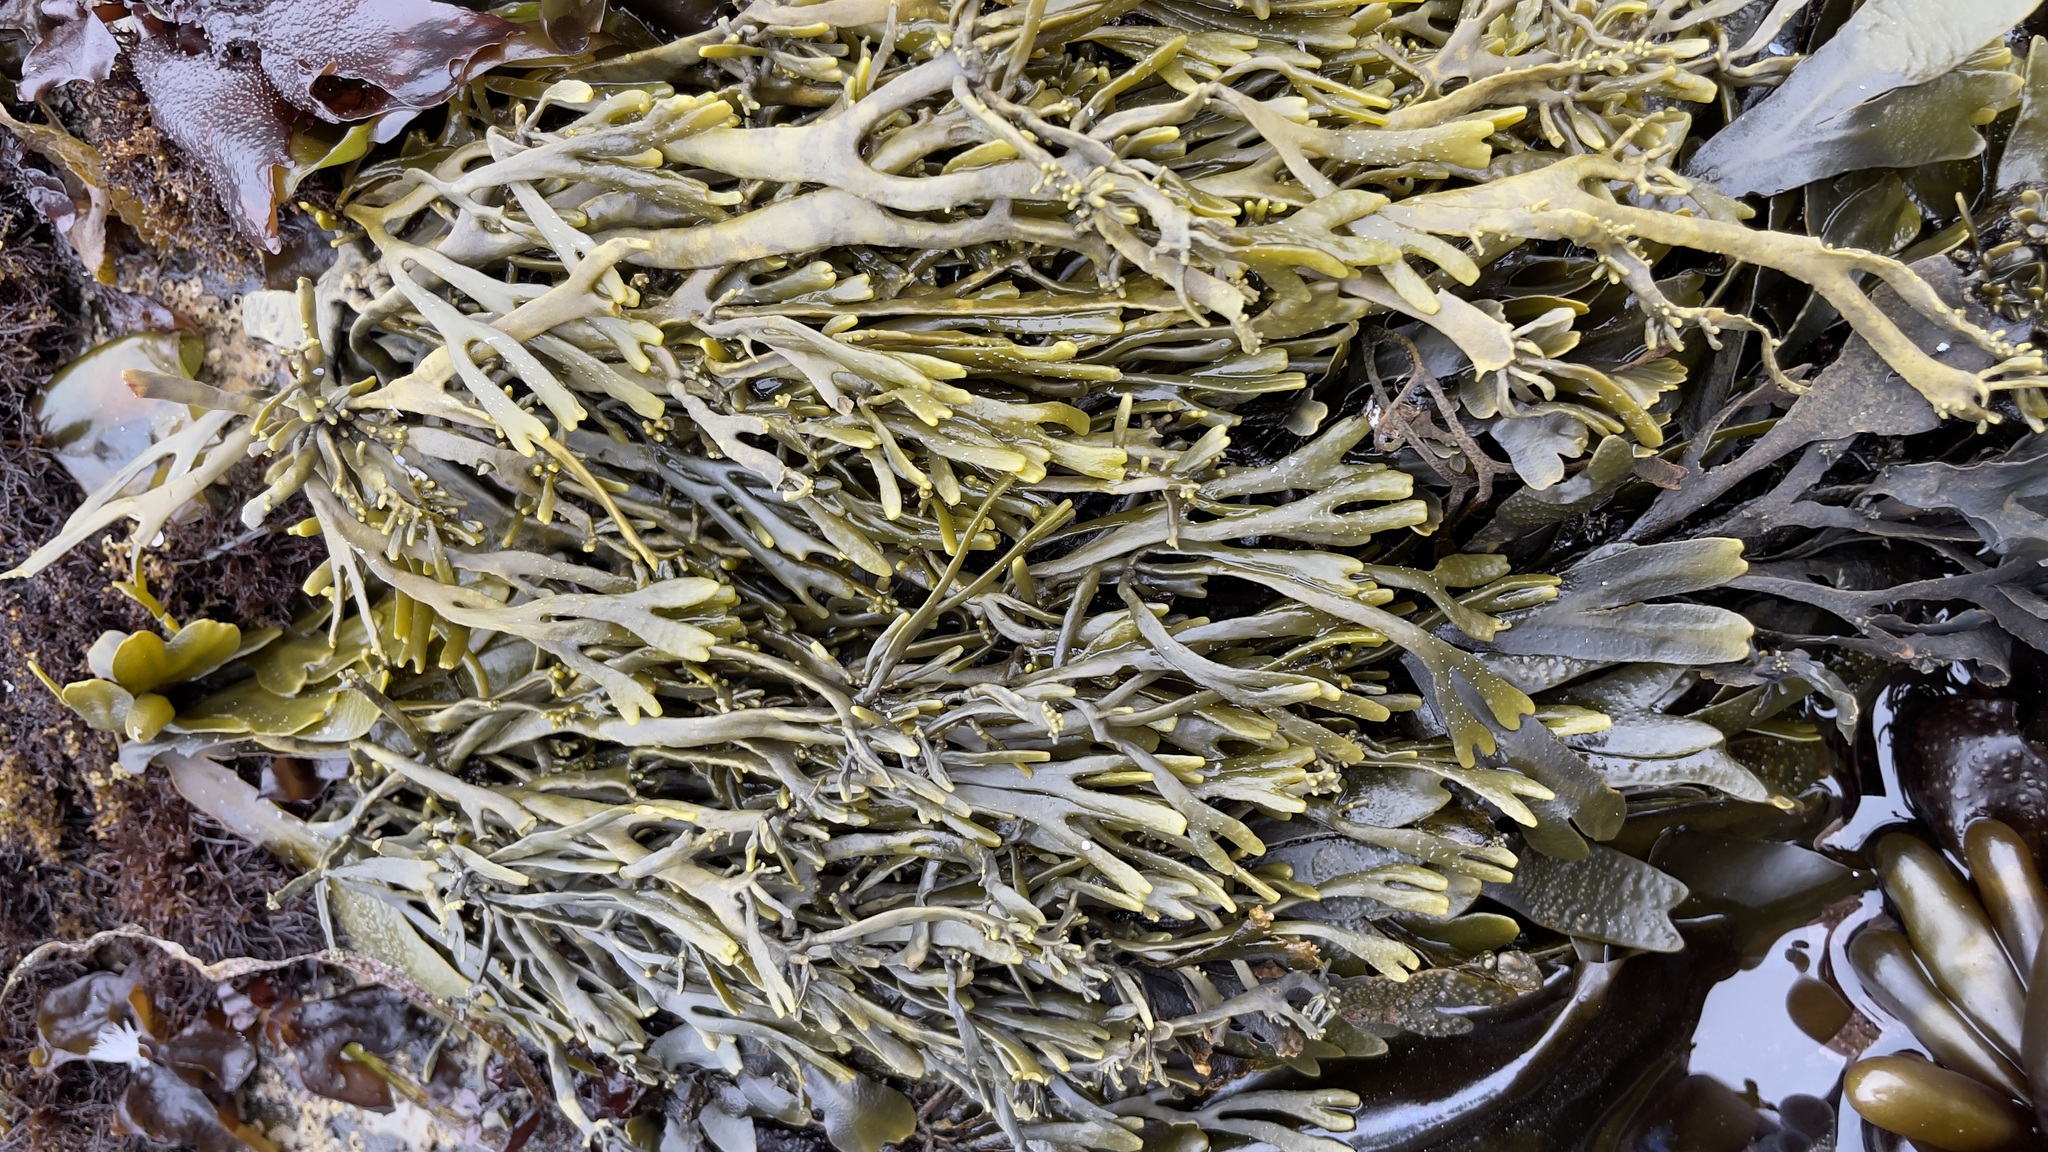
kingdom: Chromista
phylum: Ochrophyta
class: Phaeophyceae
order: Fucales
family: Fucaceae
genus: Silvetia
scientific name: Silvetia
